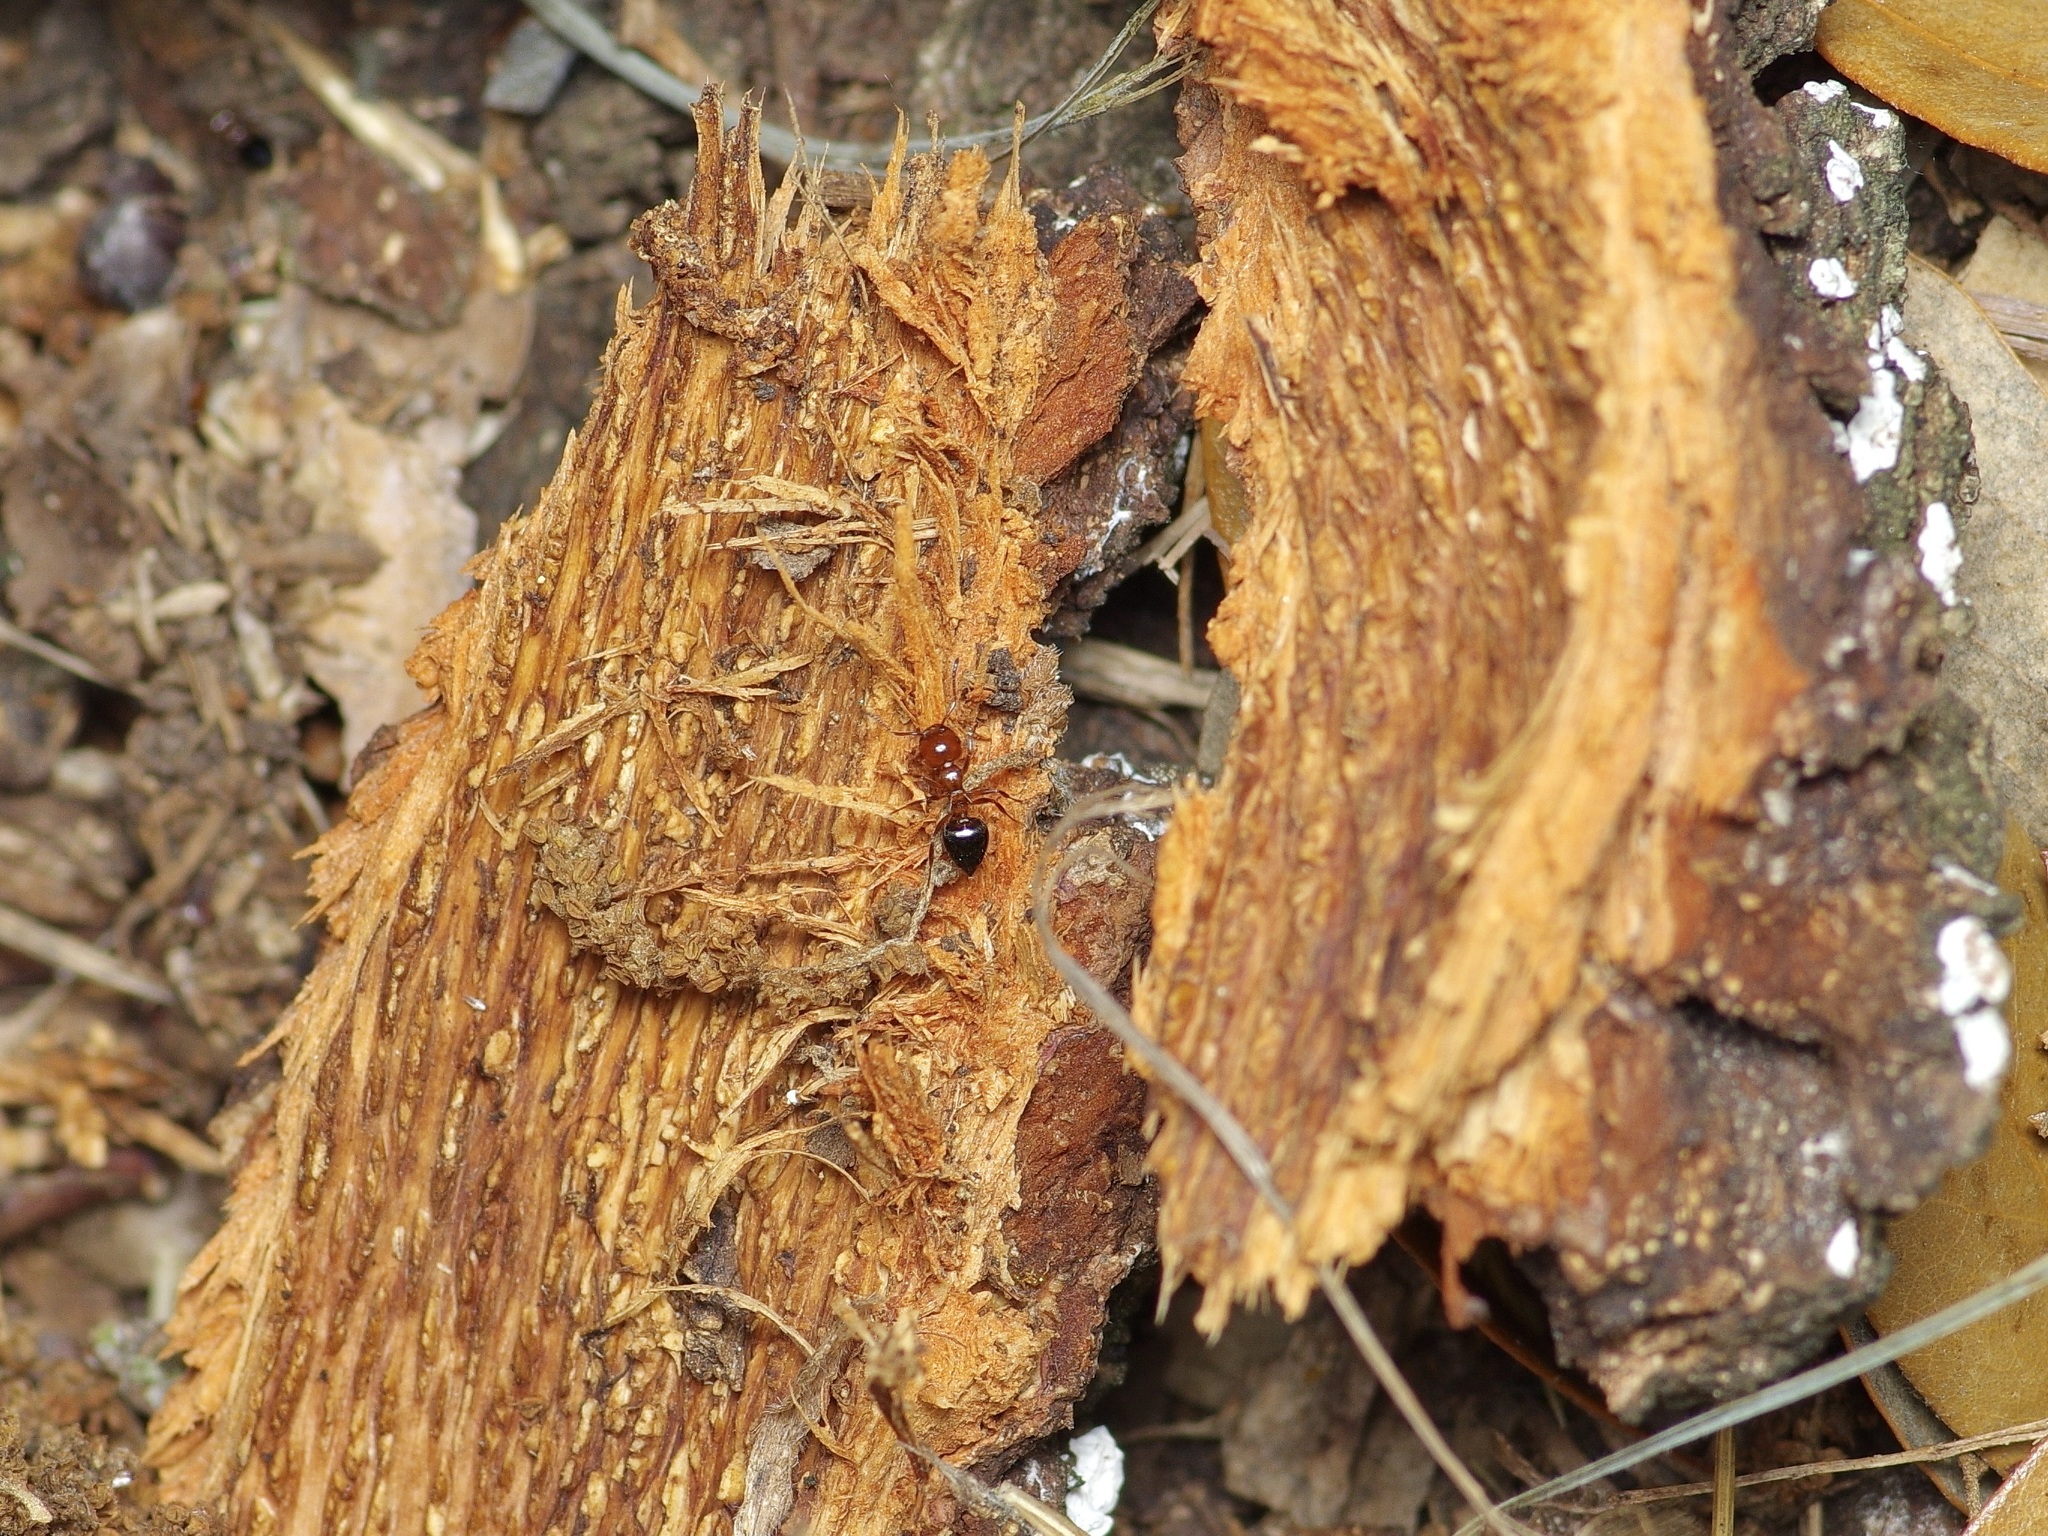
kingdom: Animalia
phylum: Arthropoda
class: Insecta
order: Hymenoptera
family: Formicidae
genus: Crematogaster
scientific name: Crematogaster laeviuscula
